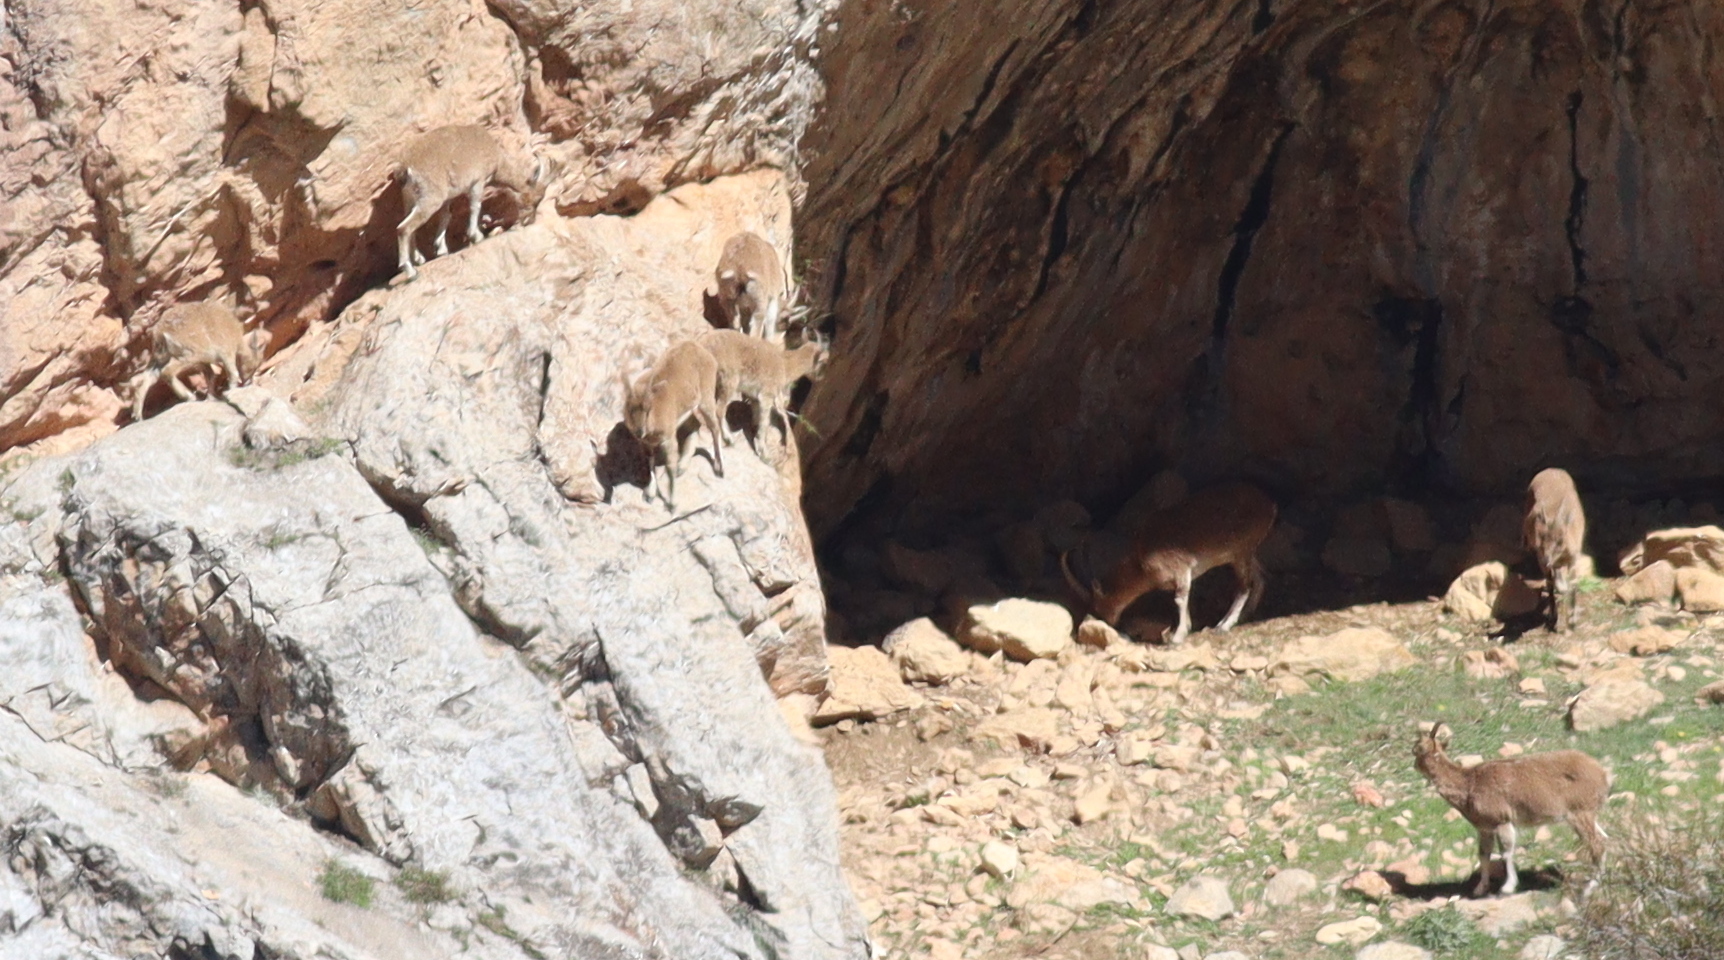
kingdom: Animalia
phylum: Chordata
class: Mammalia
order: Artiodactyla
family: Bovidae
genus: Capra
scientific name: Capra hircus
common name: Domestic goat
